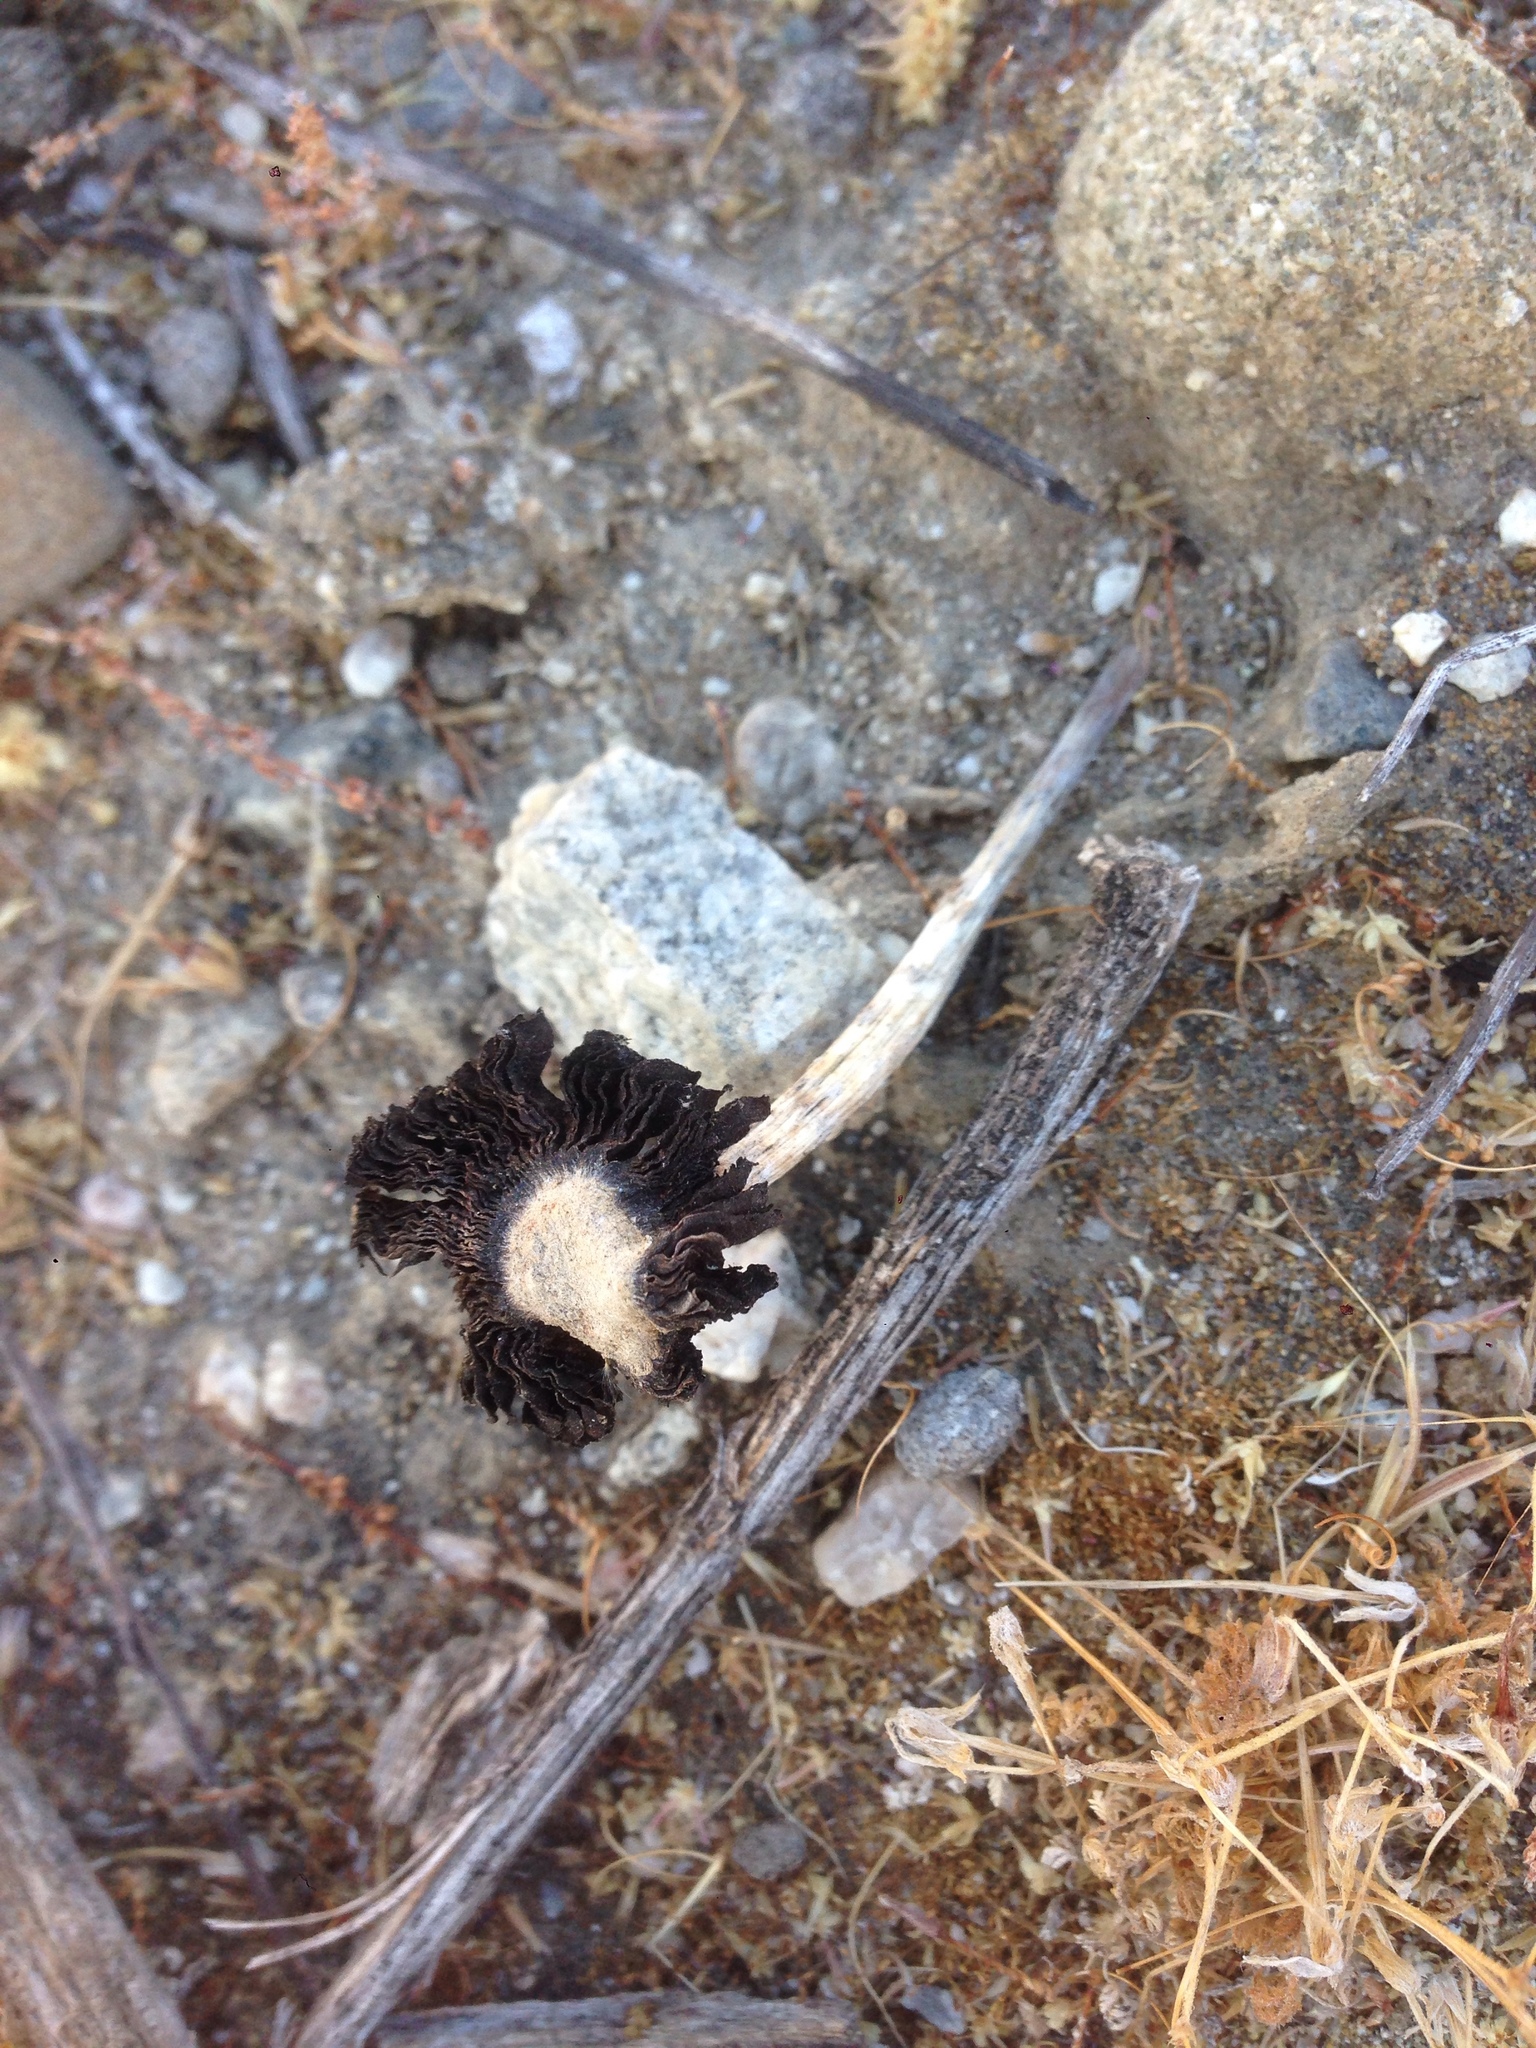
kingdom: Fungi
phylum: Basidiomycota
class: Agaricomycetes
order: Agaricales
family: Agaricaceae
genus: Montagnea
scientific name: Montagnea arenaria
